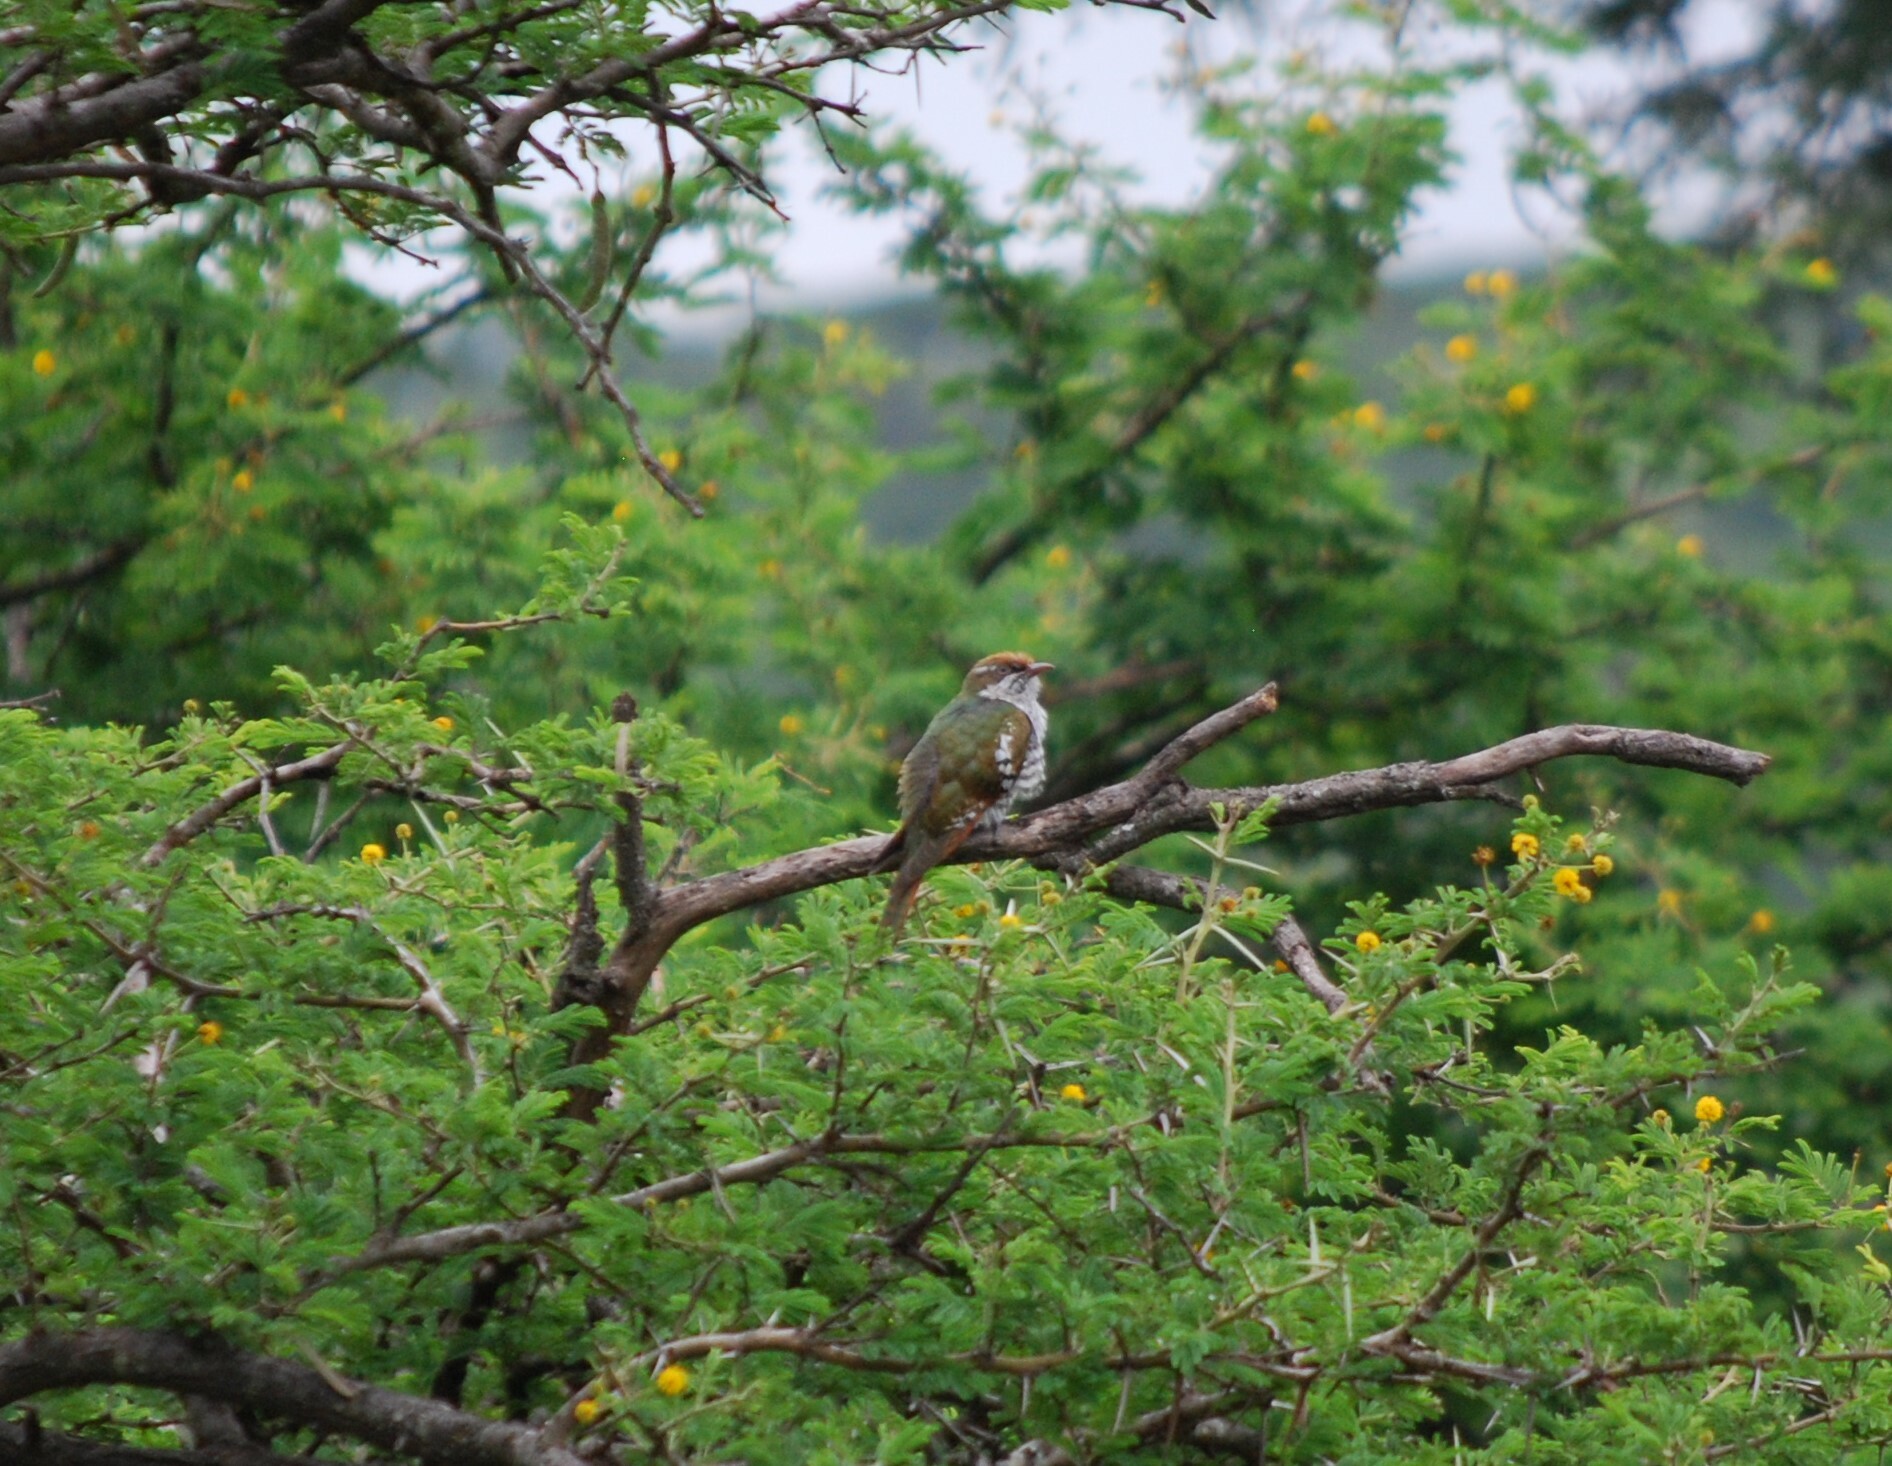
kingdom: Animalia
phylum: Chordata
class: Aves
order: Cuculiformes
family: Cuculidae
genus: Chrysococcyx
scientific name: Chrysococcyx caprius
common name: Diederik cuckoo
